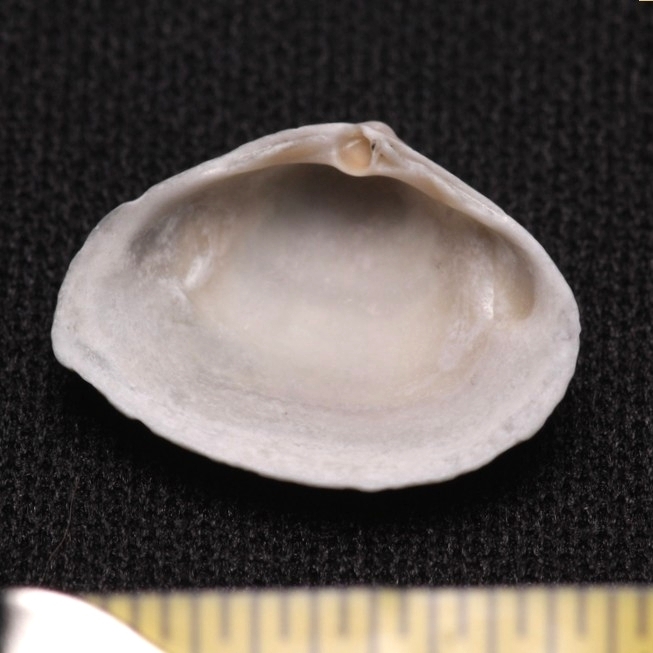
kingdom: Animalia
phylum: Mollusca
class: Bivalvia
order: Venerida
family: Mactridae
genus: Mulinia
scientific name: Mulinia lateralis
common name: Dwarf surfclam
